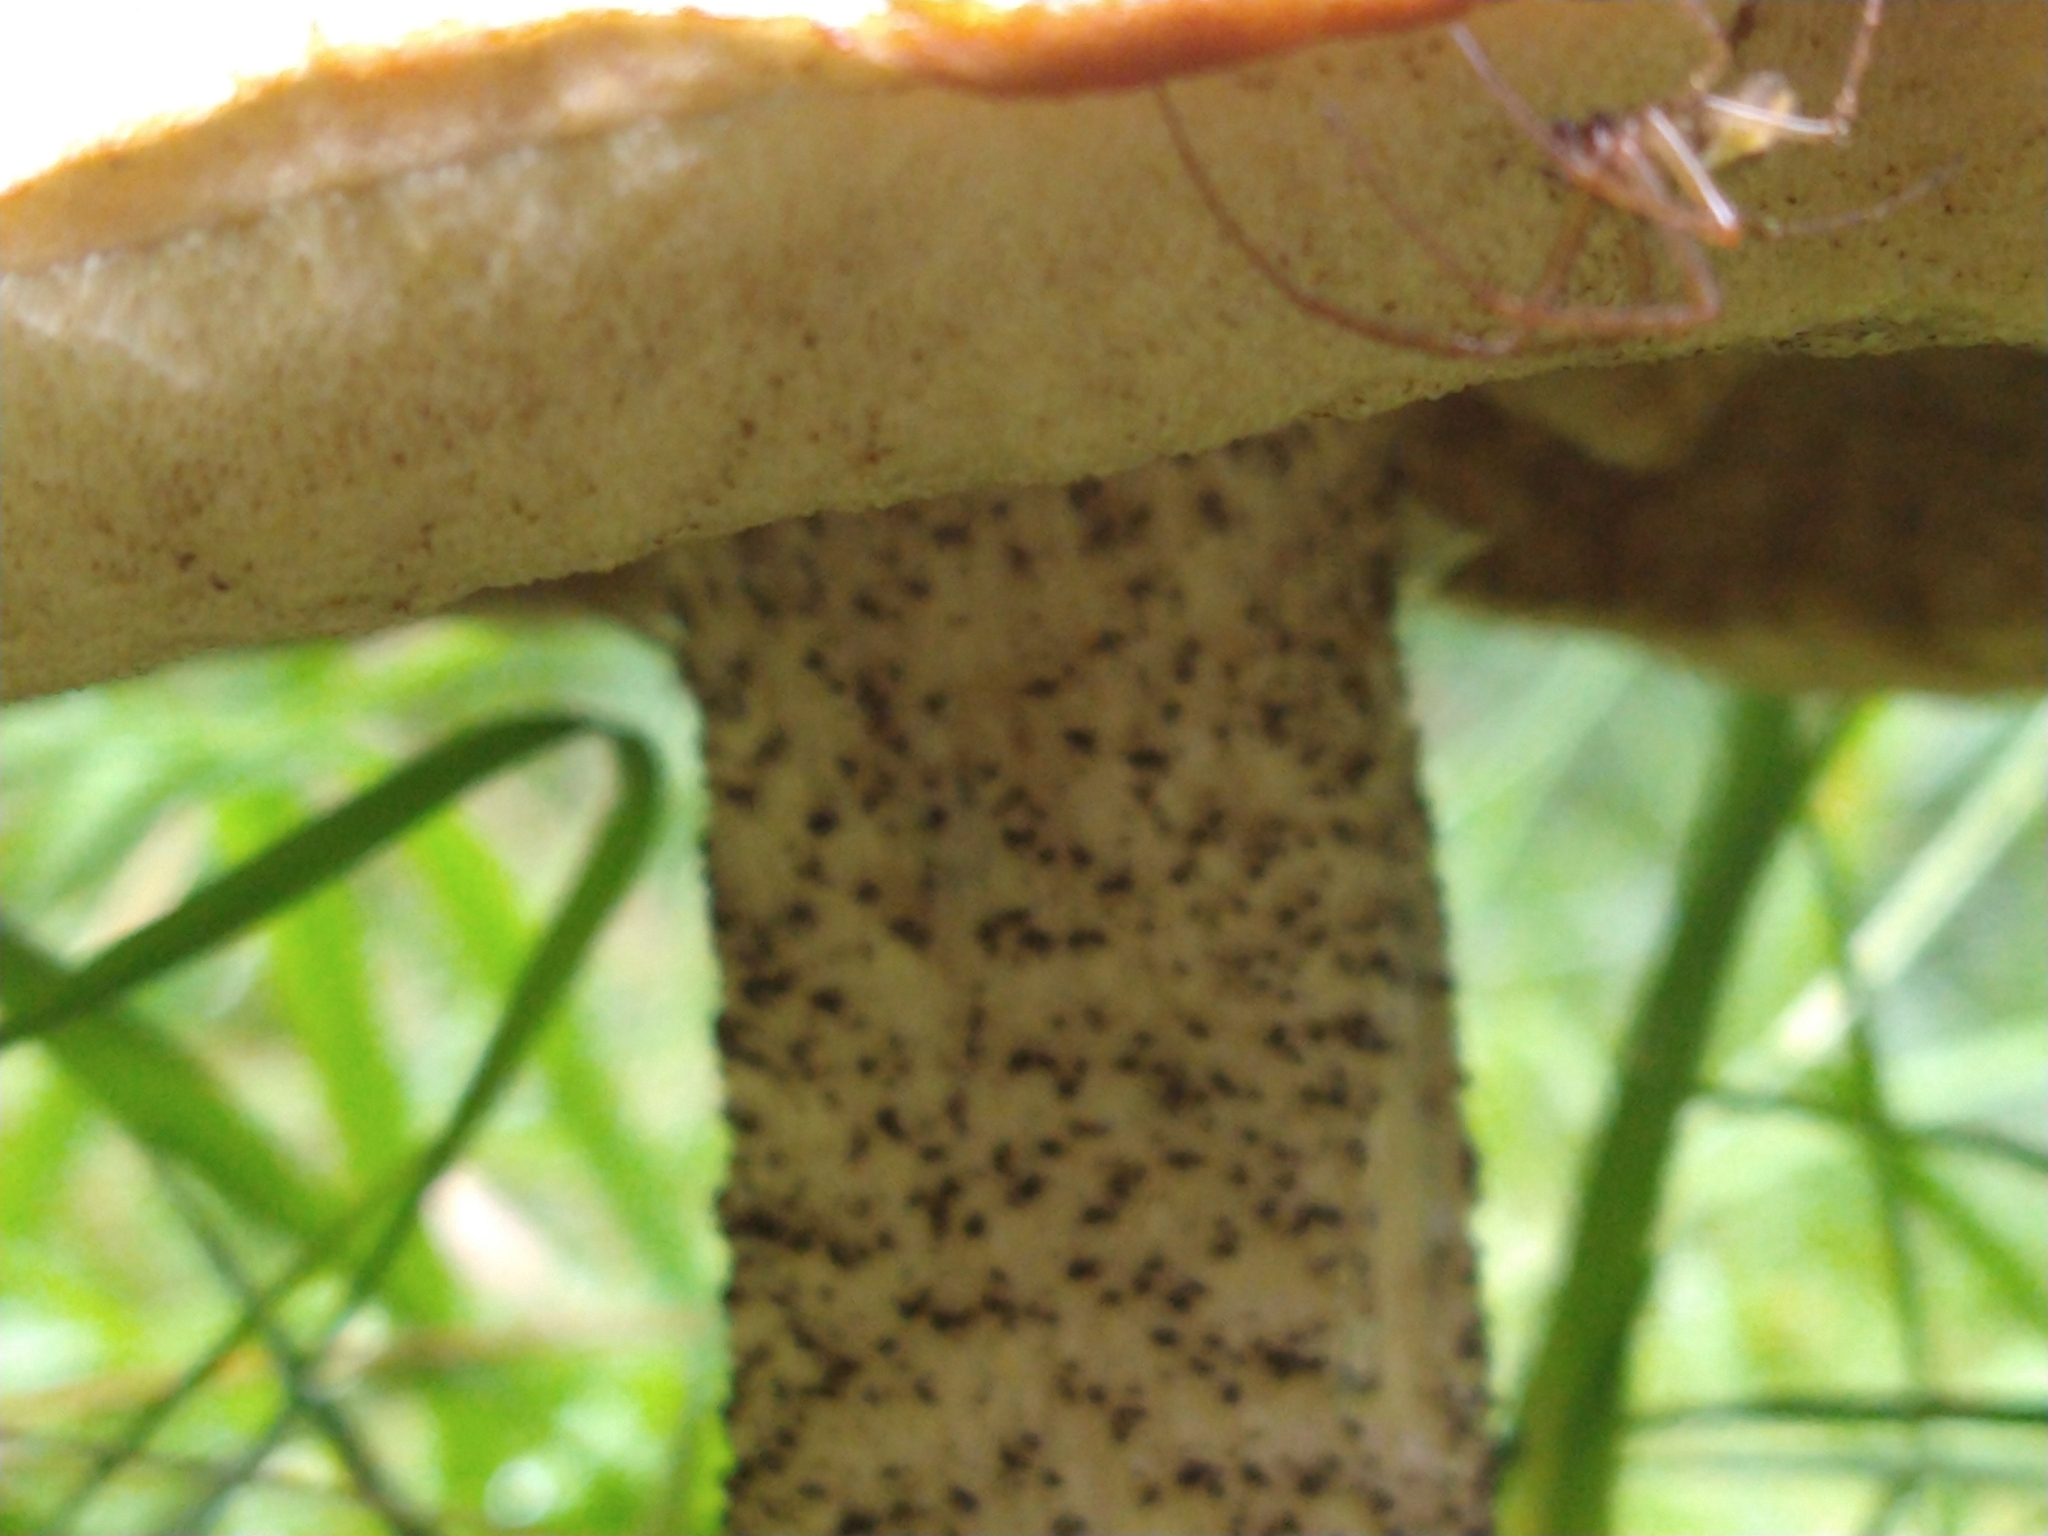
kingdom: Fungi
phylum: Basidiomycota
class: Agaricomycetes
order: Boletales
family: Boletaceae
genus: Leccinum
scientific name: Leccinum versipelle
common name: Orange birch bolete
